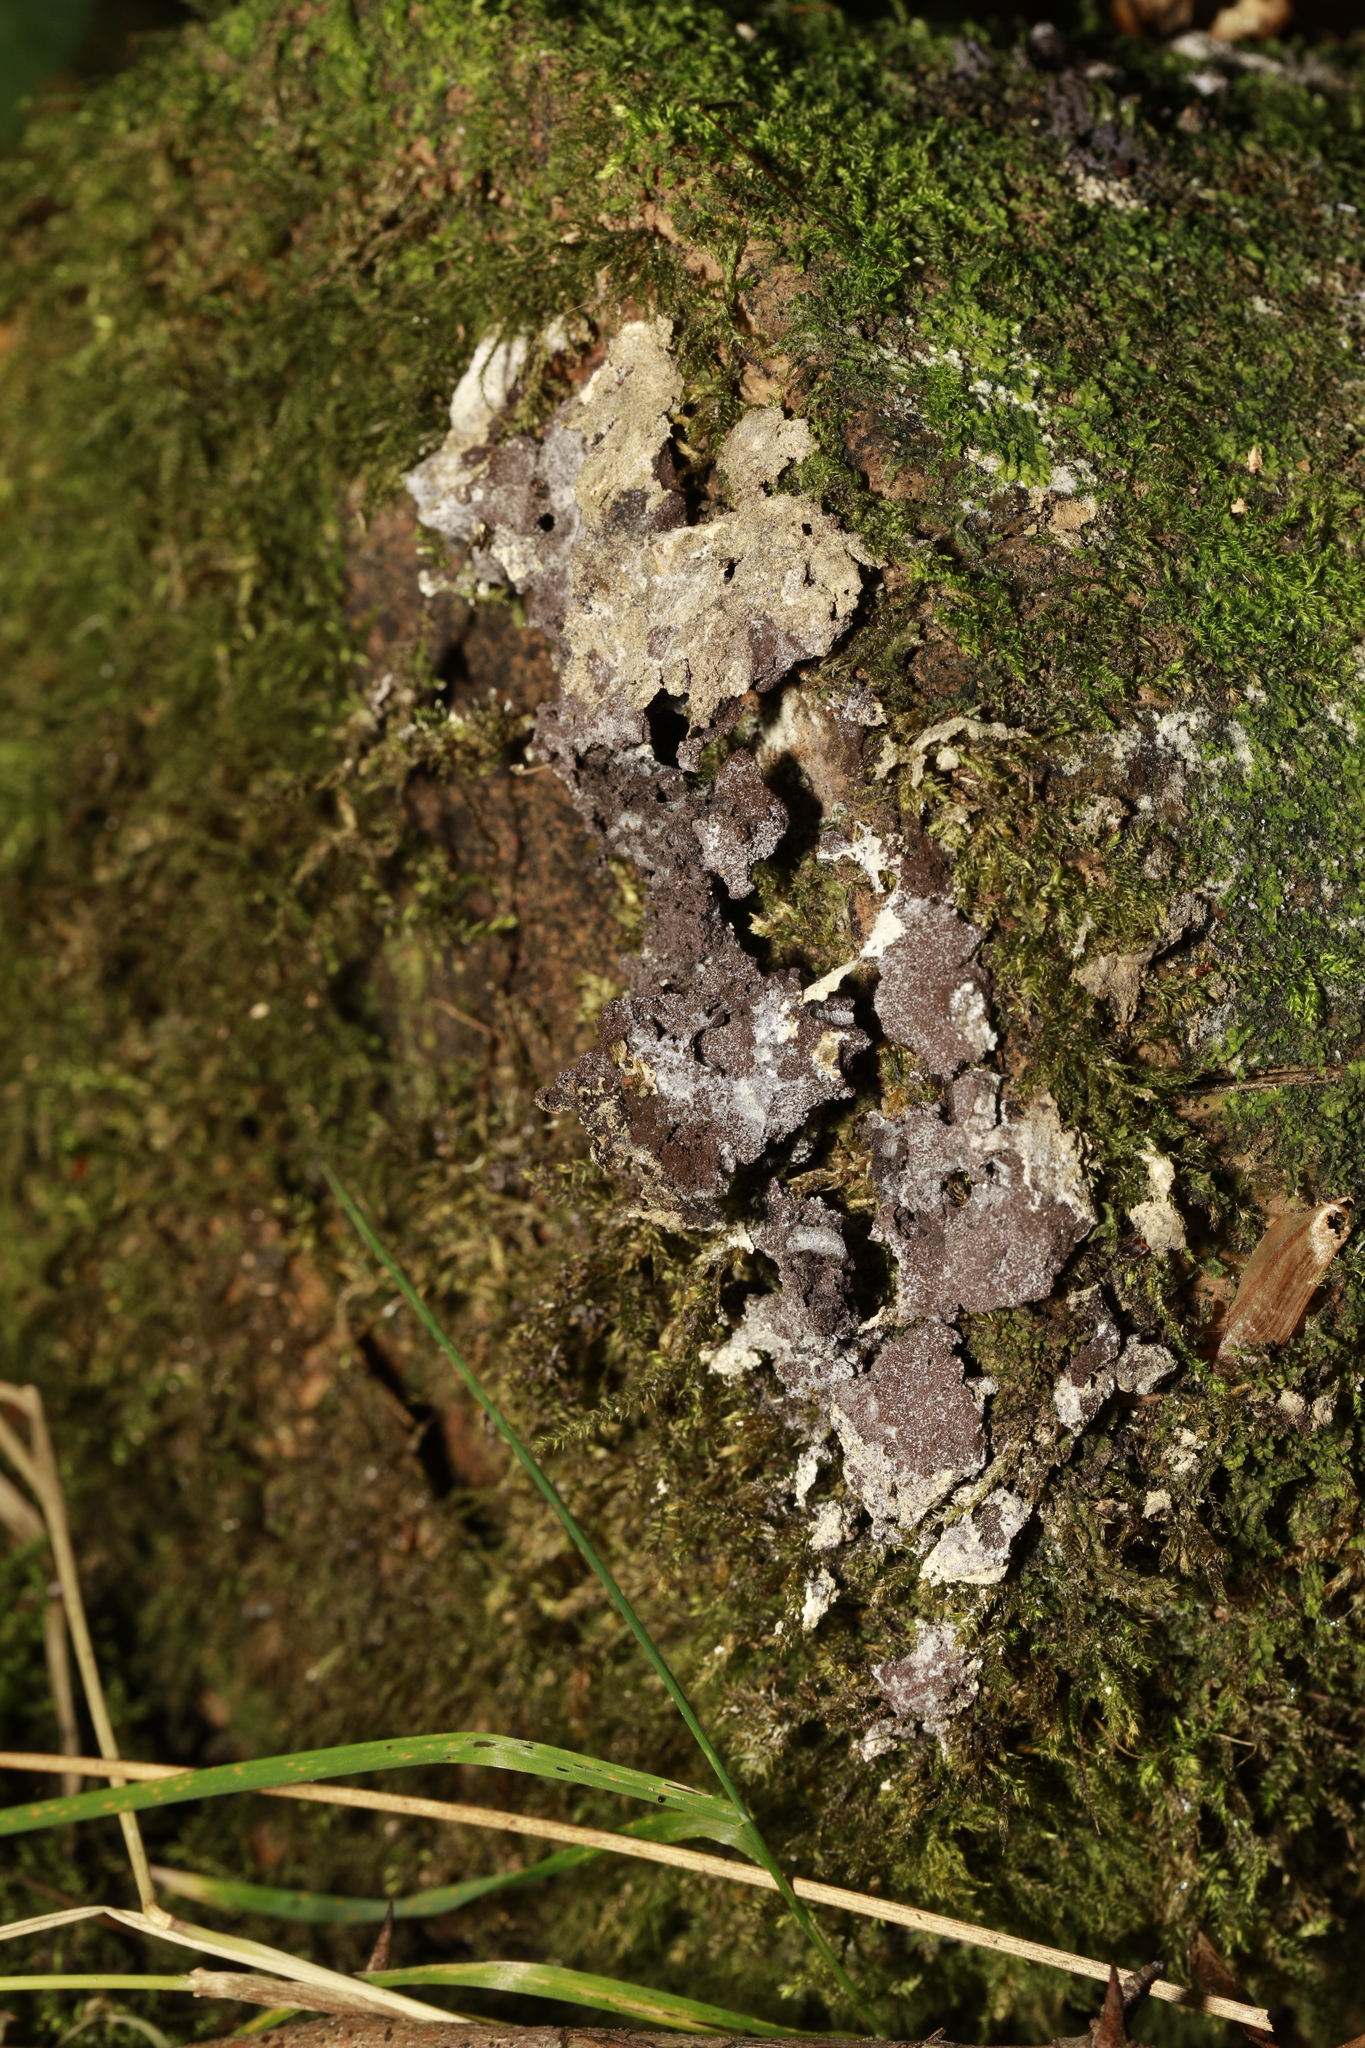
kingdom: Protozoa
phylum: Mycetozoa
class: Myxomycetes
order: Physarales
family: Physaraceae
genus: Fuligo
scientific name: Fuligo septica
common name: Dog vomit slime mold
